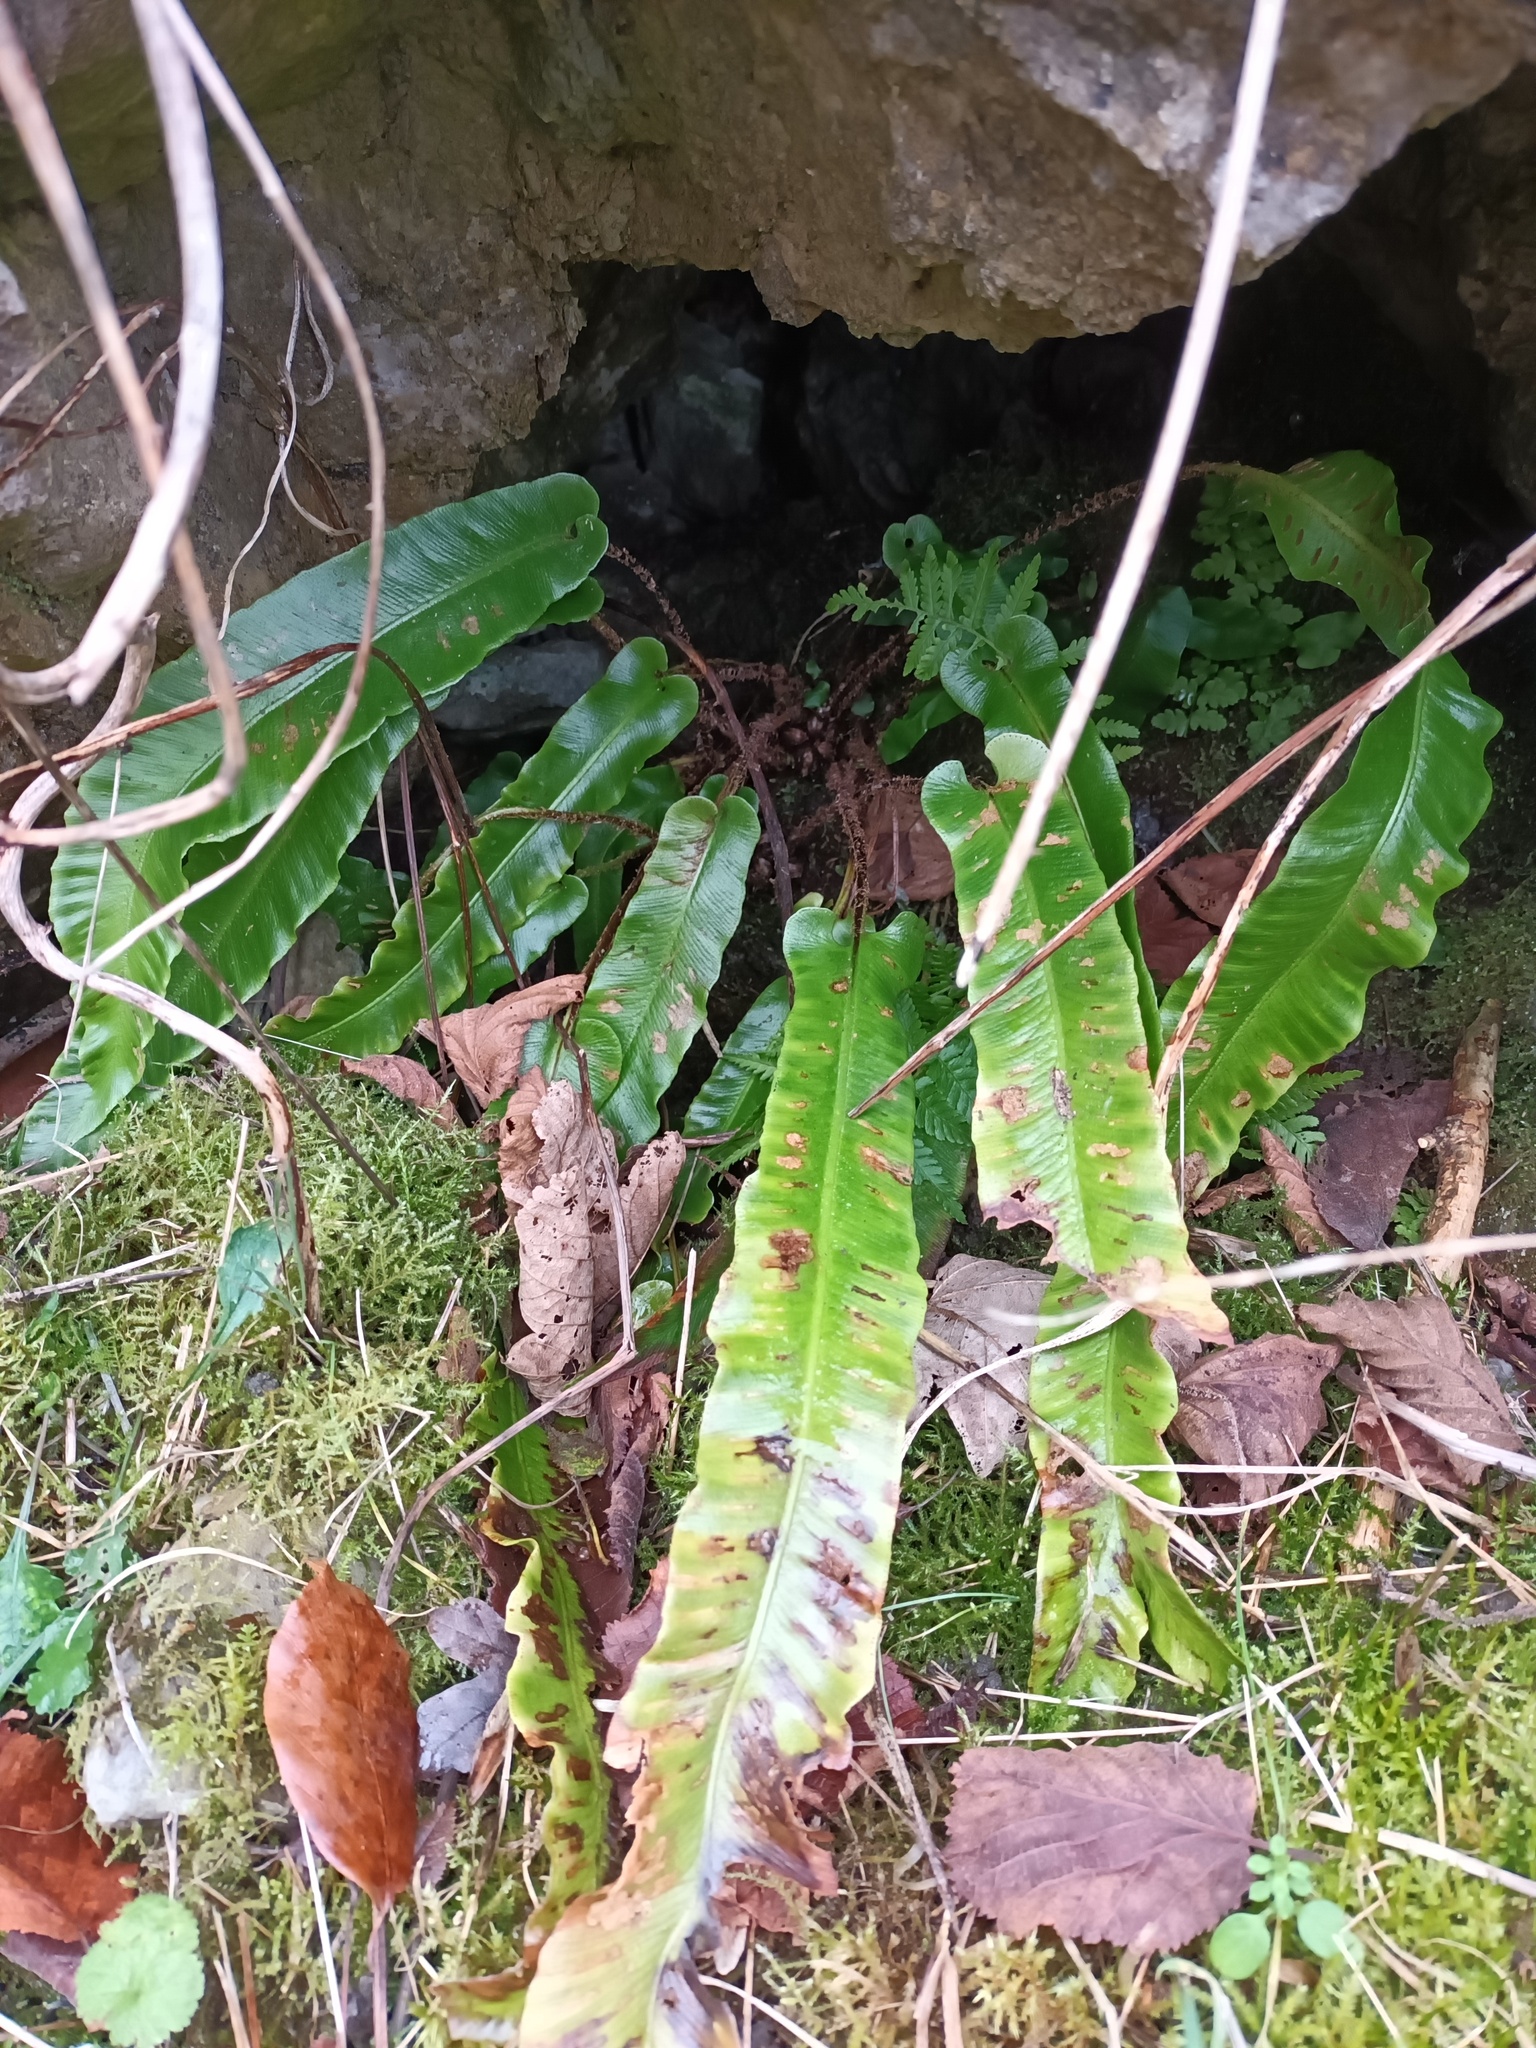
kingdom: Plantae
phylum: Tracheophyta
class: Polypodiopsida
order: Polypodiales
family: Aspleniaceae
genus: Asplenium
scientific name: Asplenium scolopendrium
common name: Hart's-tongue fern
